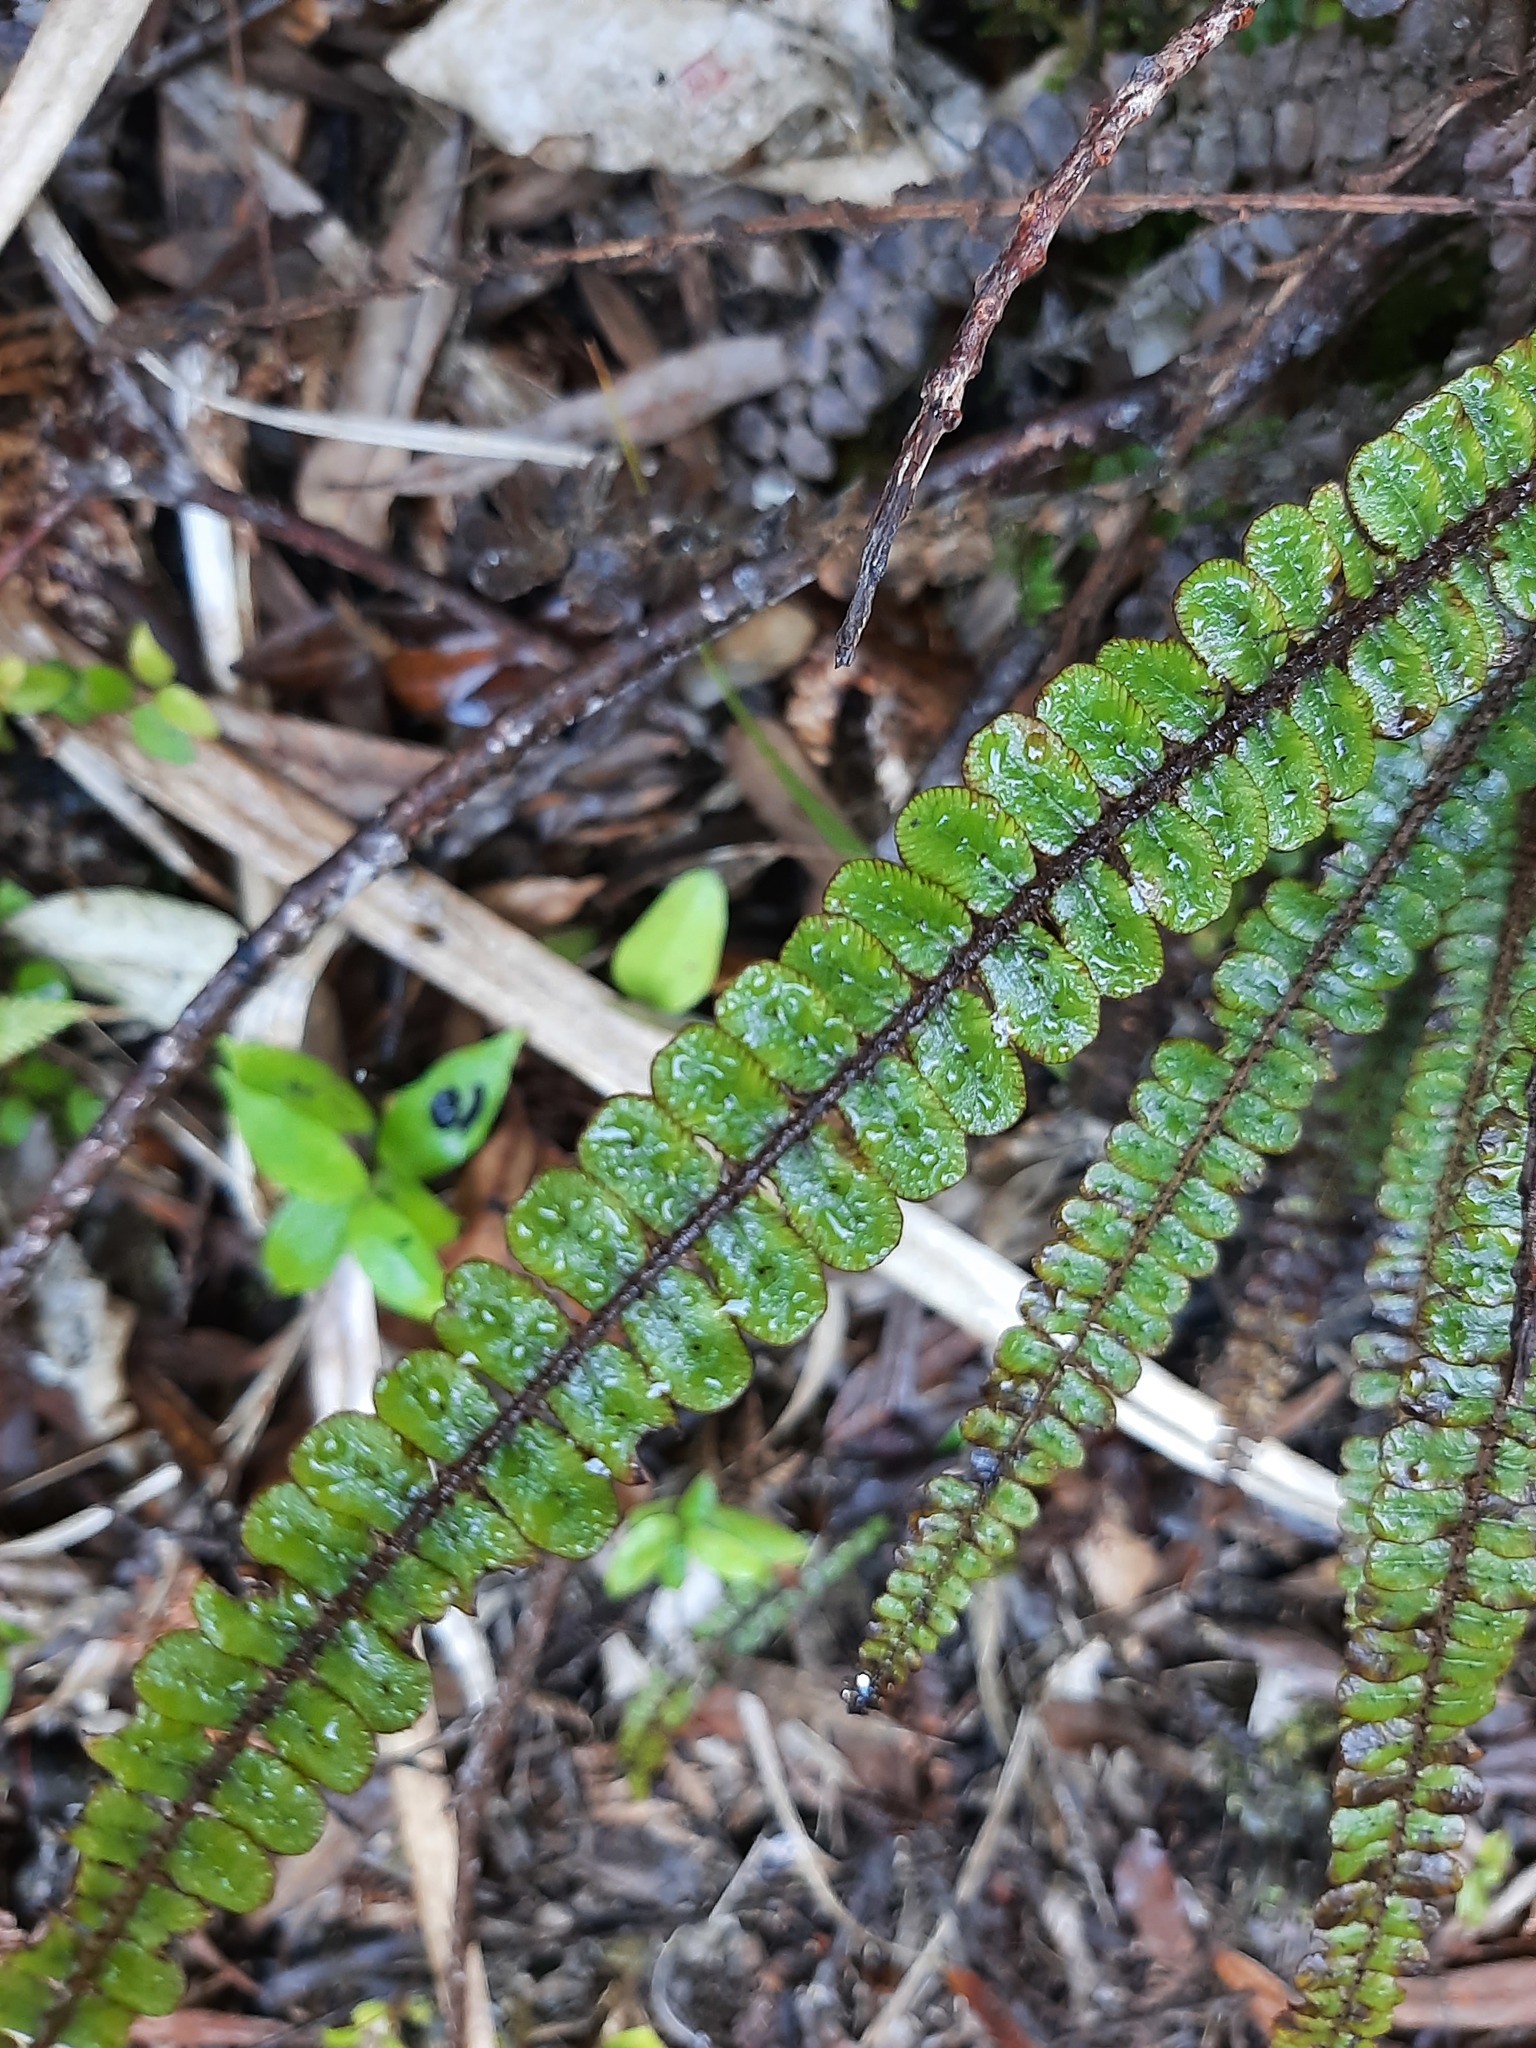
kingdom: Plantae
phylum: Tracheophyta
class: Polypodiopsida
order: Polypodiales
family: Blechnaceae
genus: Cranfillia
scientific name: Cranfillia fluviatilis
